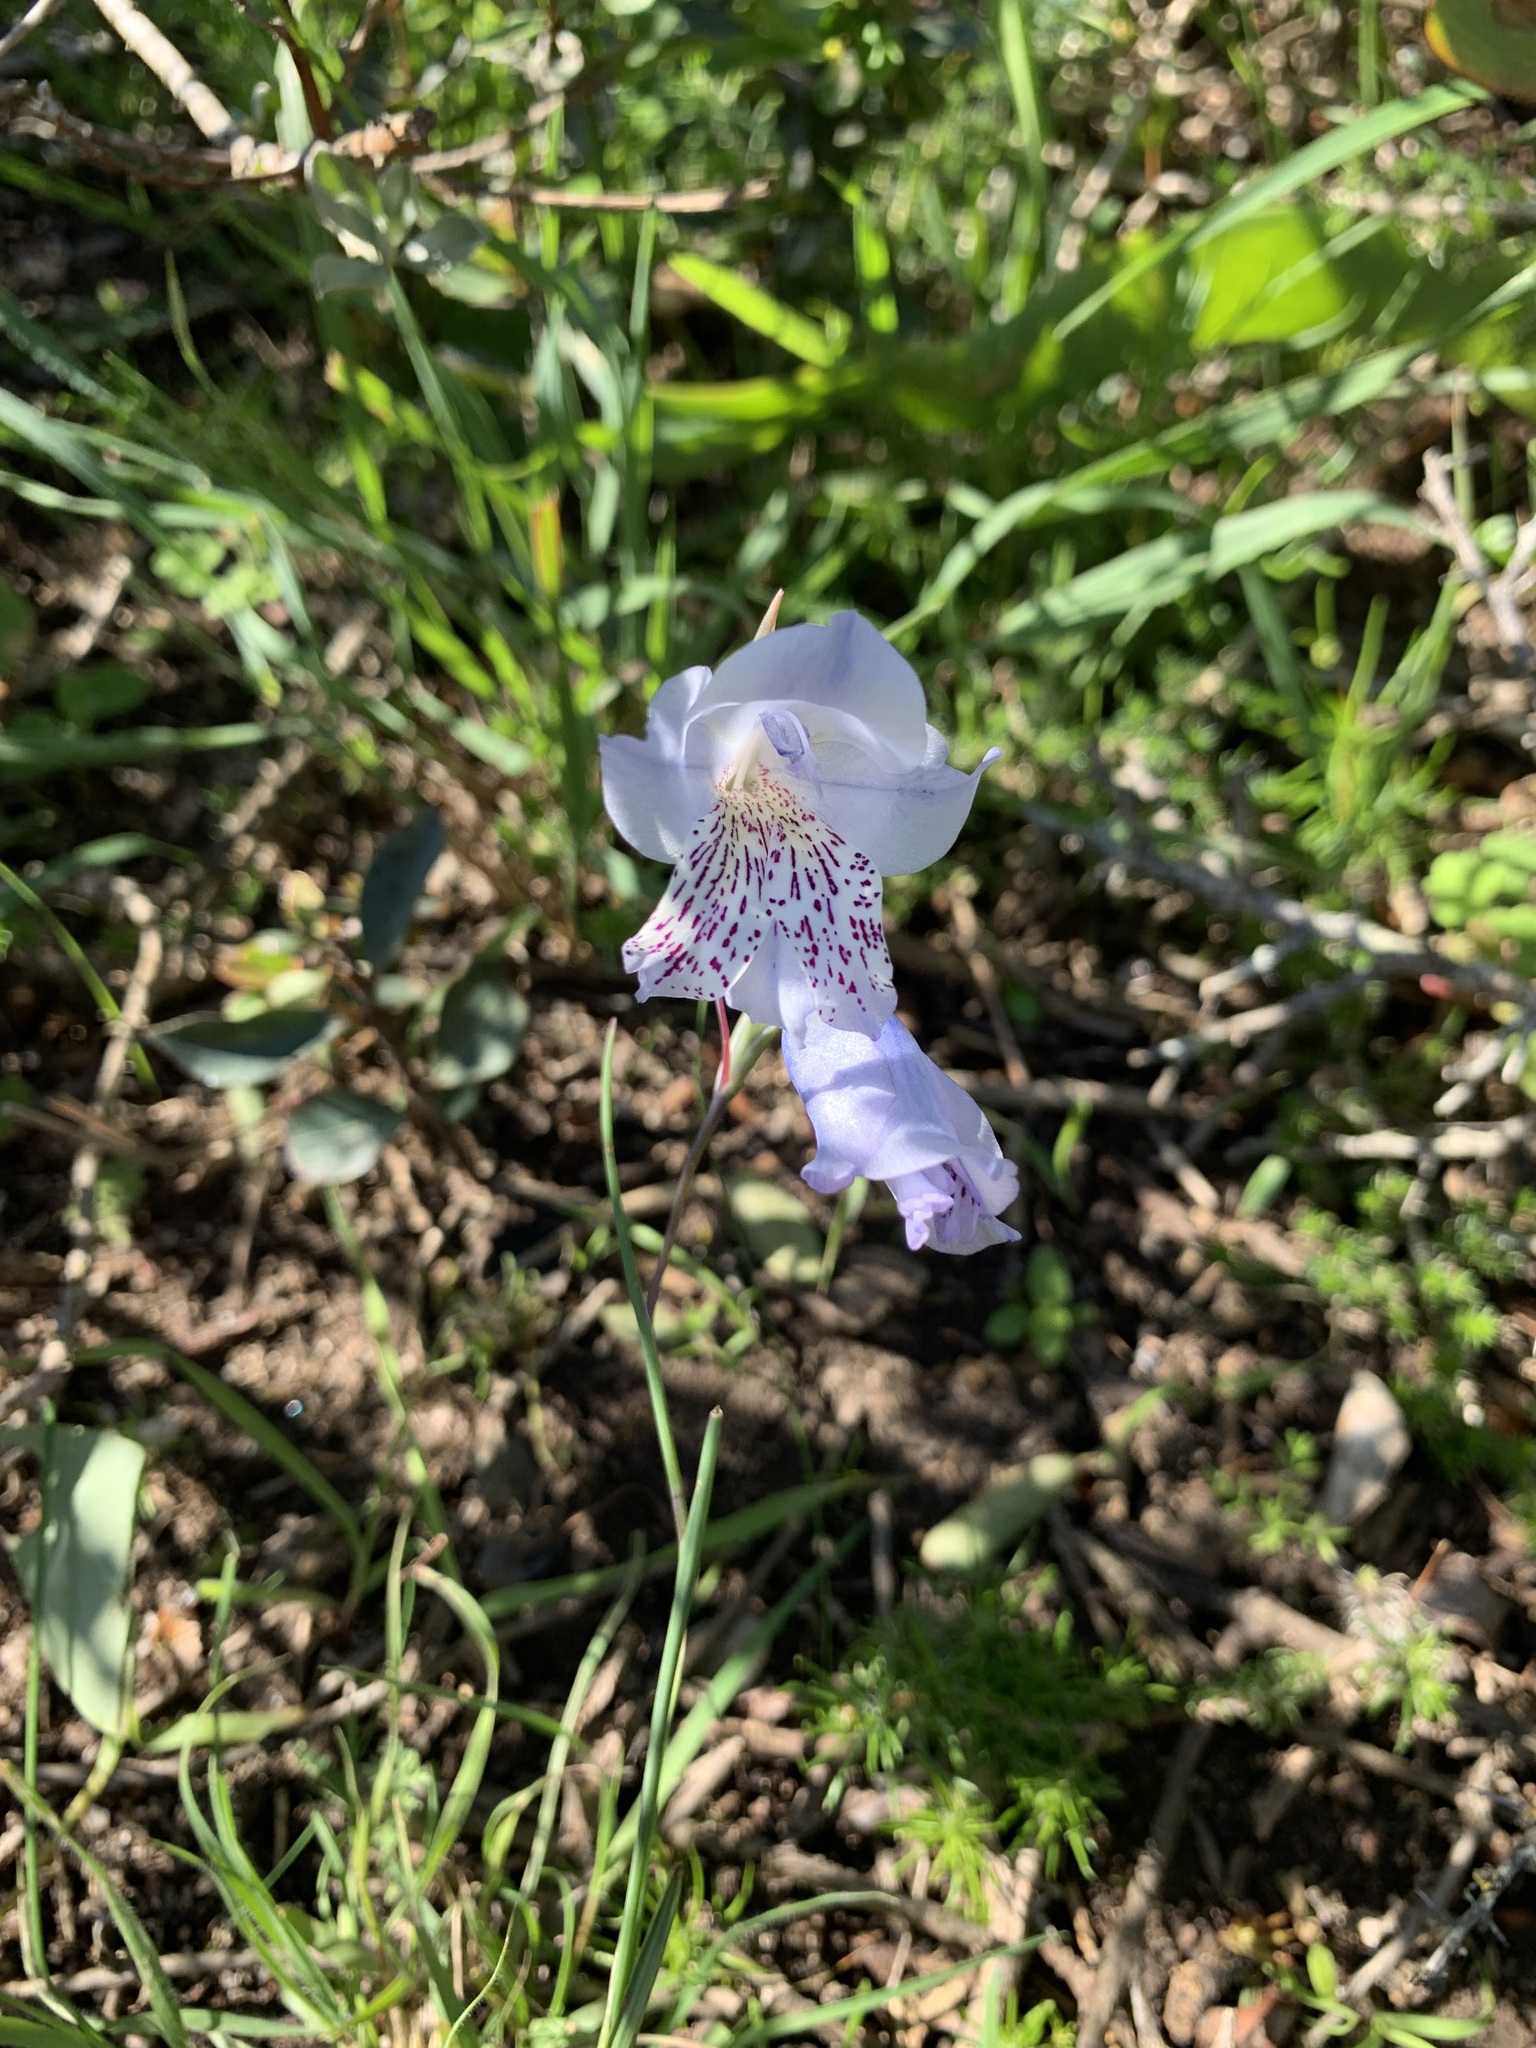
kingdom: Plantae
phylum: Tracheophyta
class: Liliopsida
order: Asparagales
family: Iridaceae
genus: Gladiolus
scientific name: Gladiolus caeruleus
